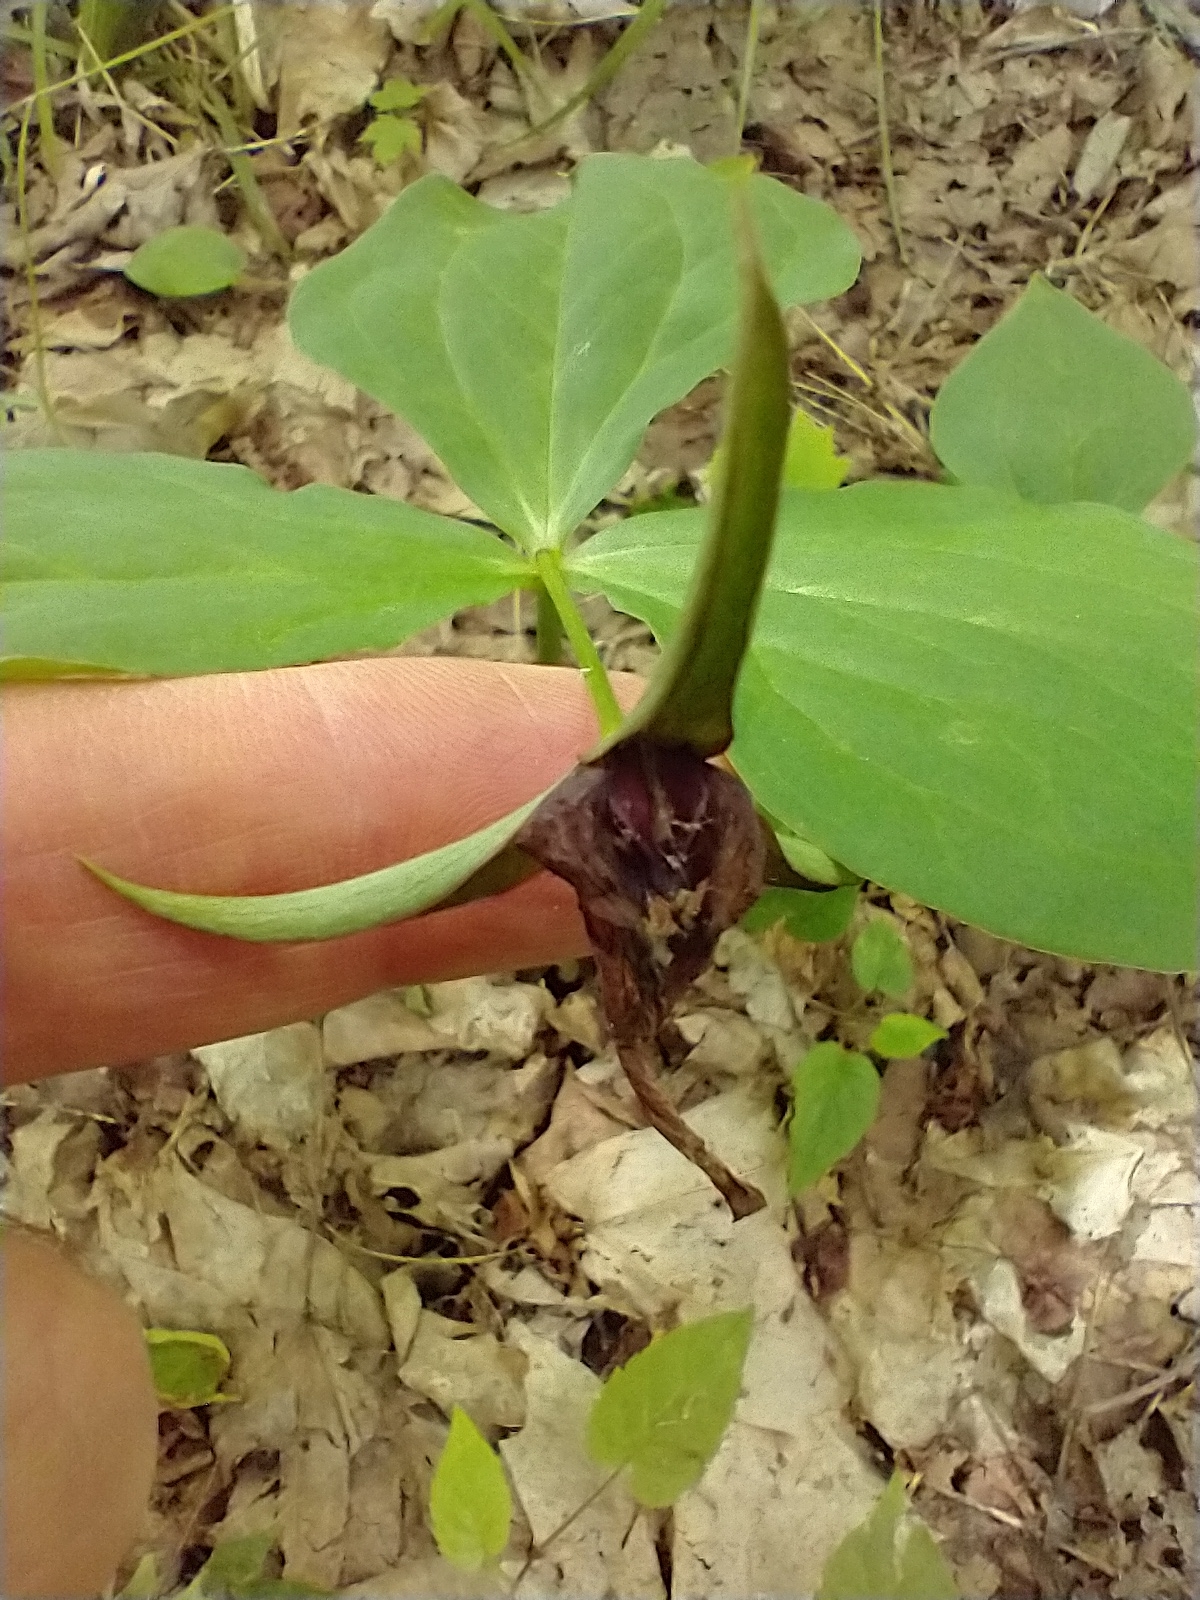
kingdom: Plantae
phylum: Tracheophyta
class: Liliopsida
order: Liliales
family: Melanthiaceae
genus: Trillium
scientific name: Trillium erectum
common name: Purple trillium
